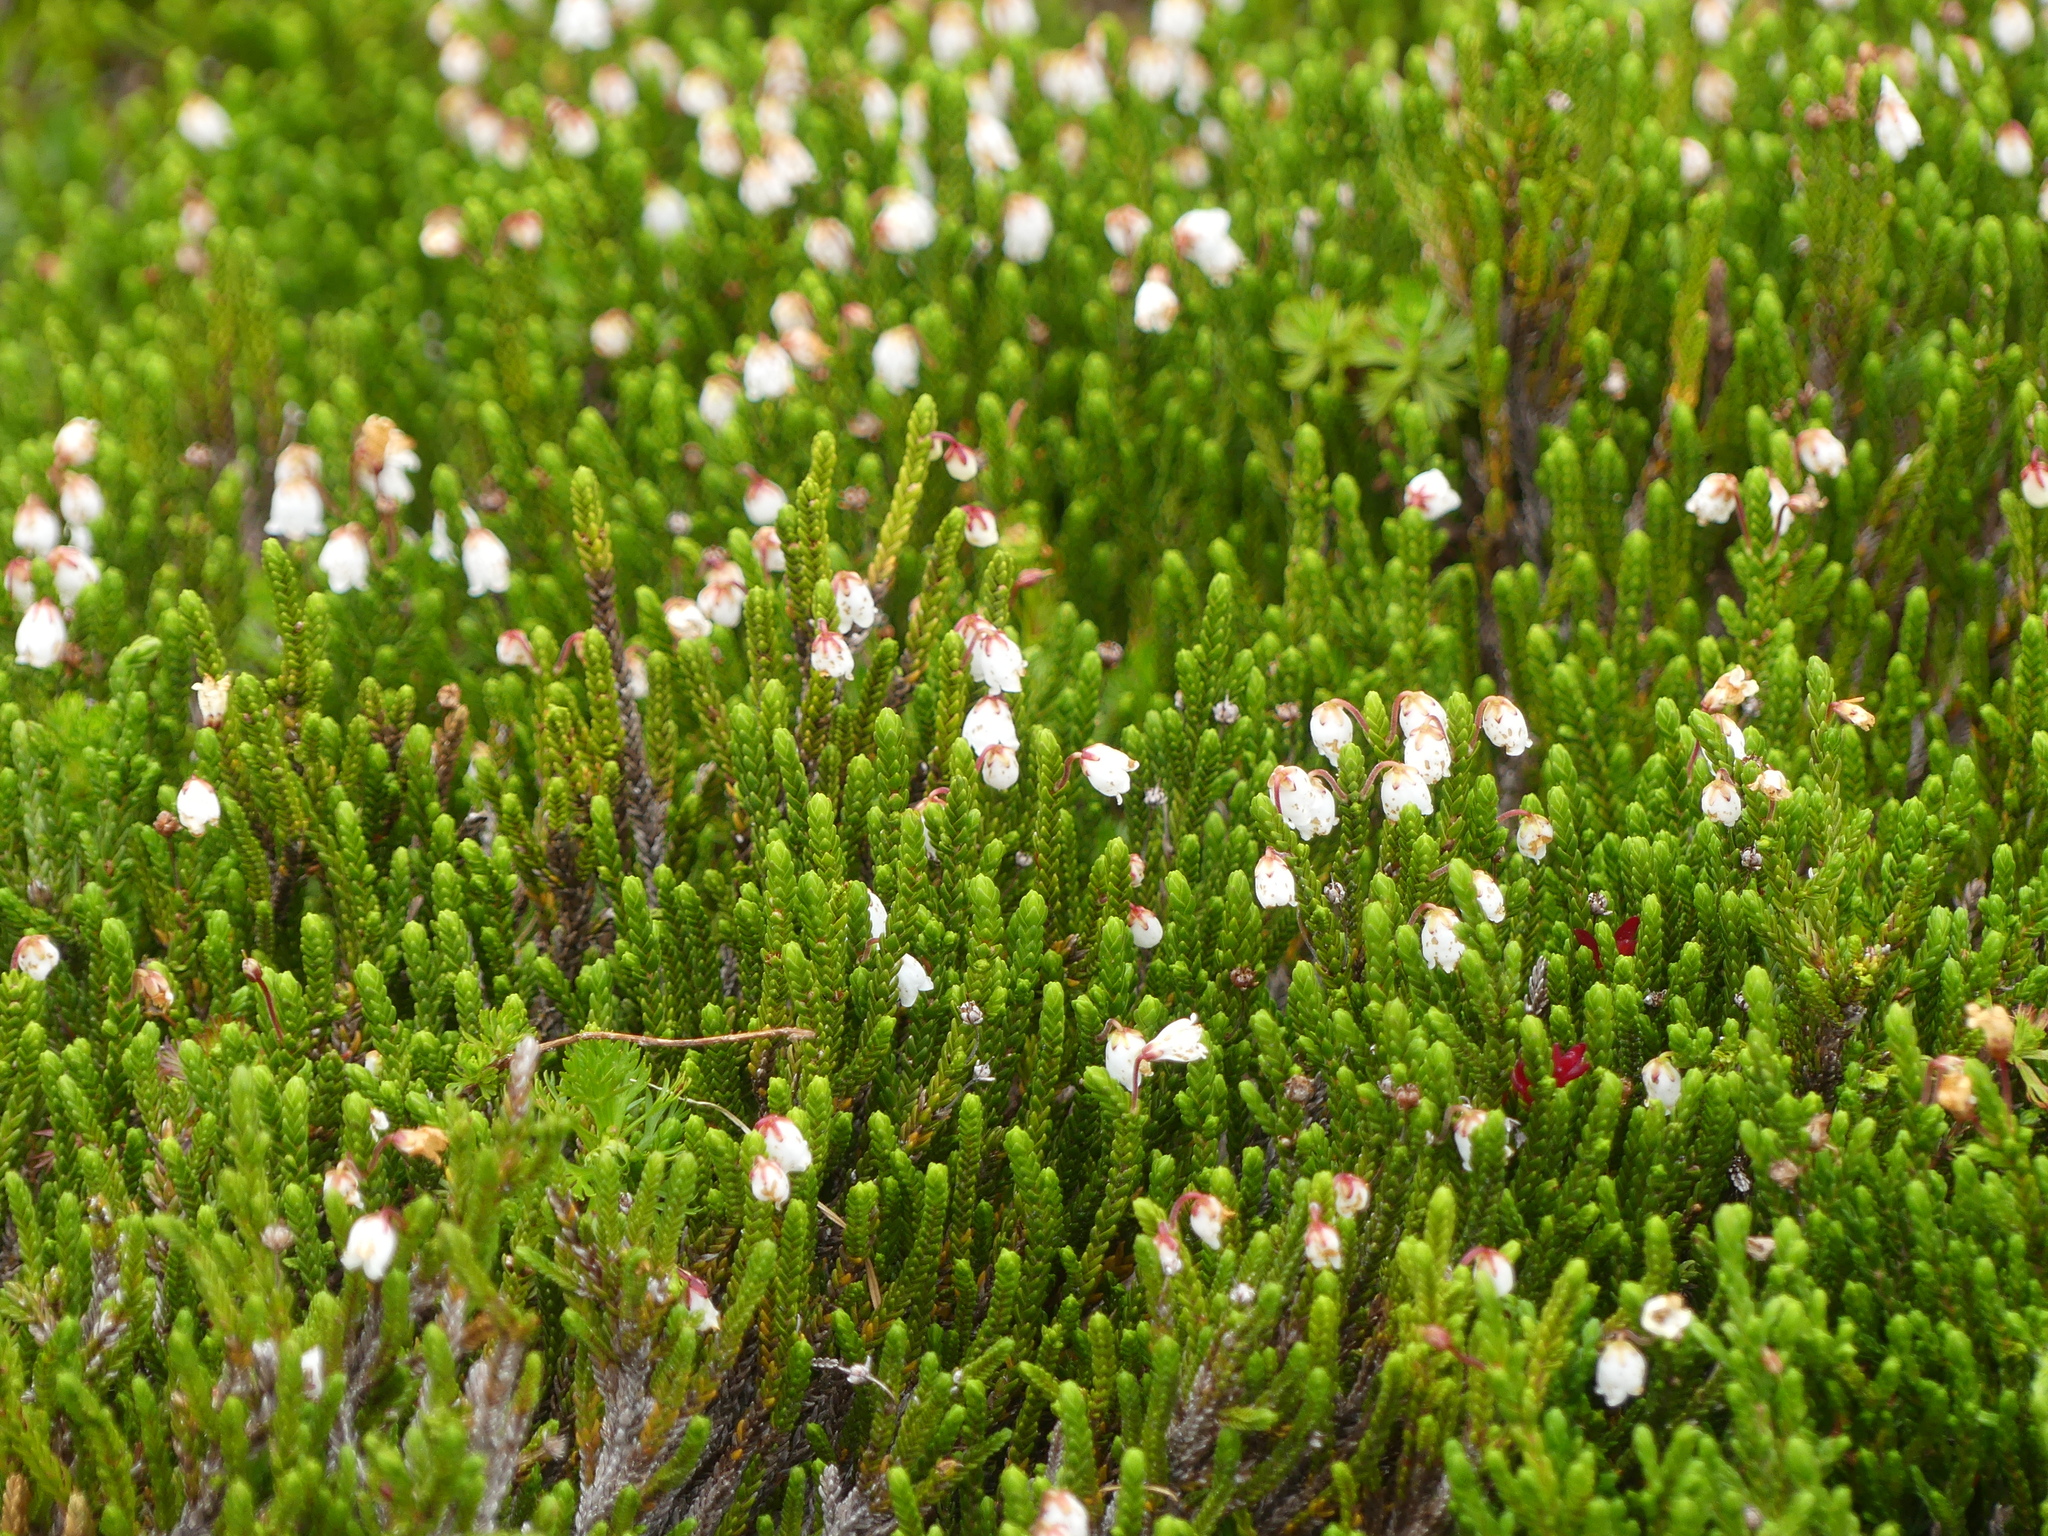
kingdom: Plantae
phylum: Tracheophyta
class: Magnoliopsida
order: Ericales
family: Ericaceae
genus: Cassiope
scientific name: Cassiope mertensiana
